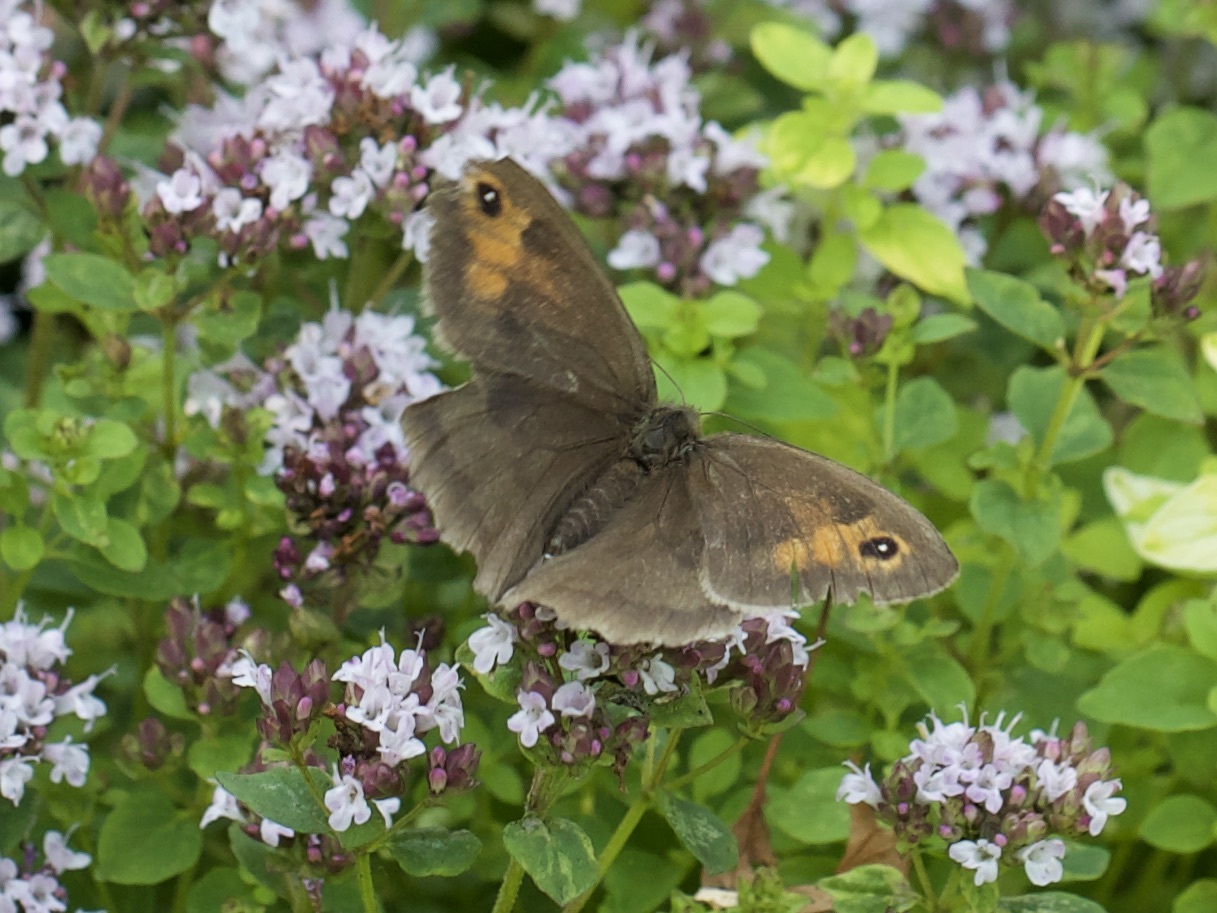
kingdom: Animalia
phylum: Arthropoda
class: Insecta
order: Lepidoptera
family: Nymphalidae
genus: Maniola
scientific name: Maniola jurtina
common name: Meadow brown
